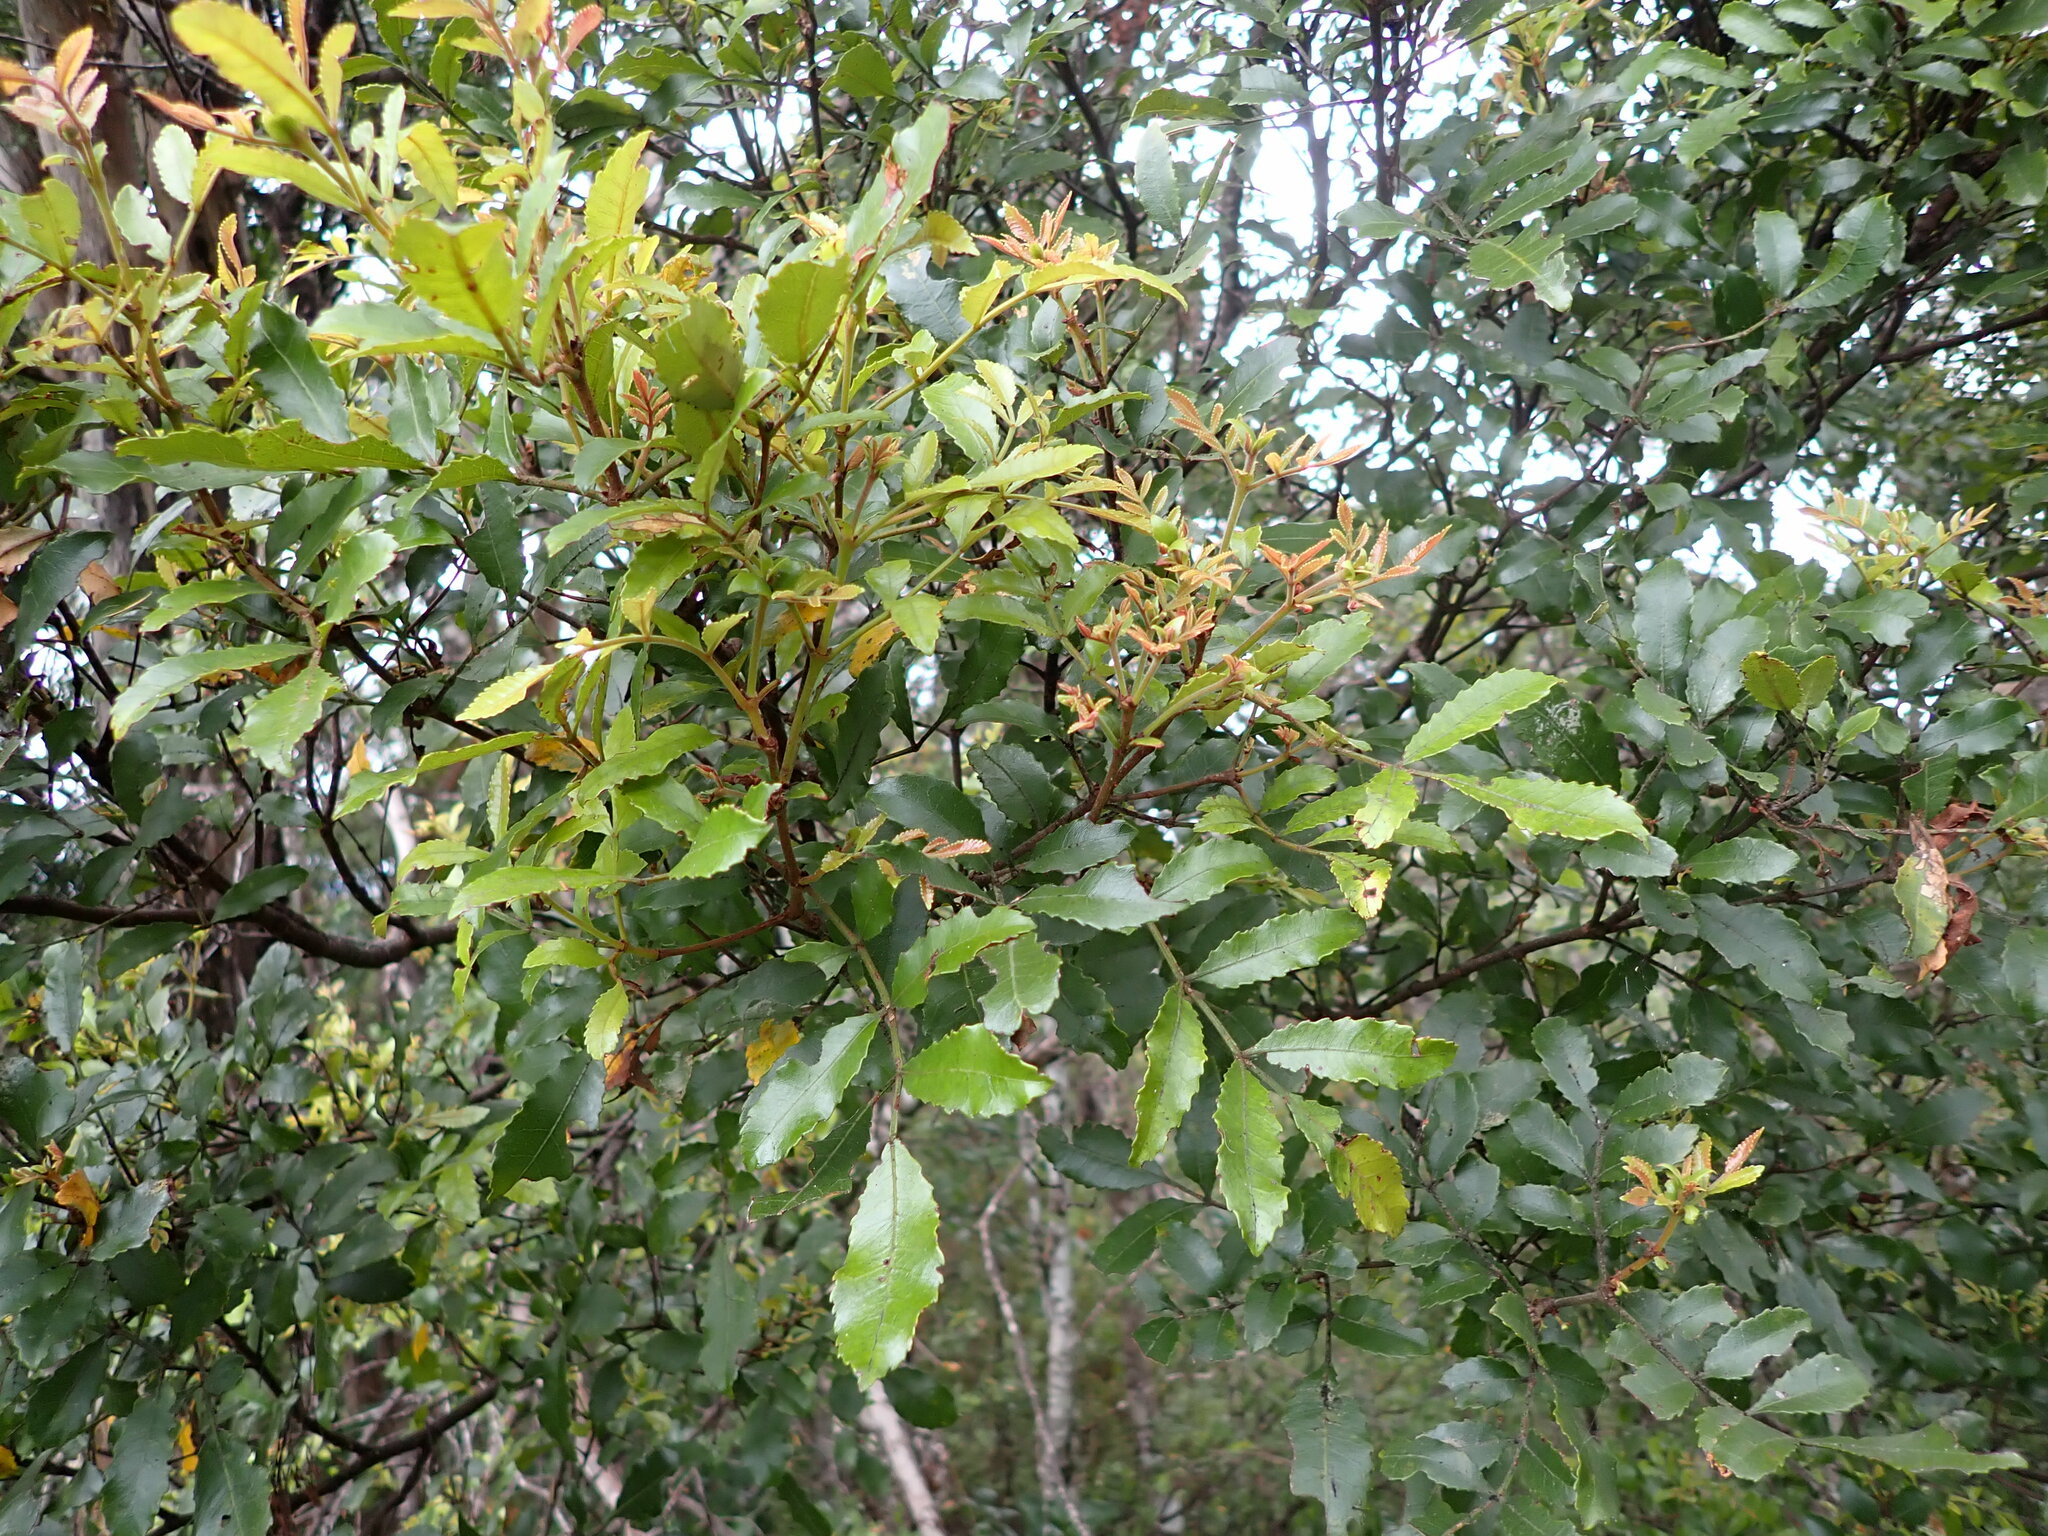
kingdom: Plantae
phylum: Tracheophyta
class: Magnoliopsida
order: Oxalidales
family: Cunoniaceae
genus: Pterophylla
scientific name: Pterophylla sylvicola
